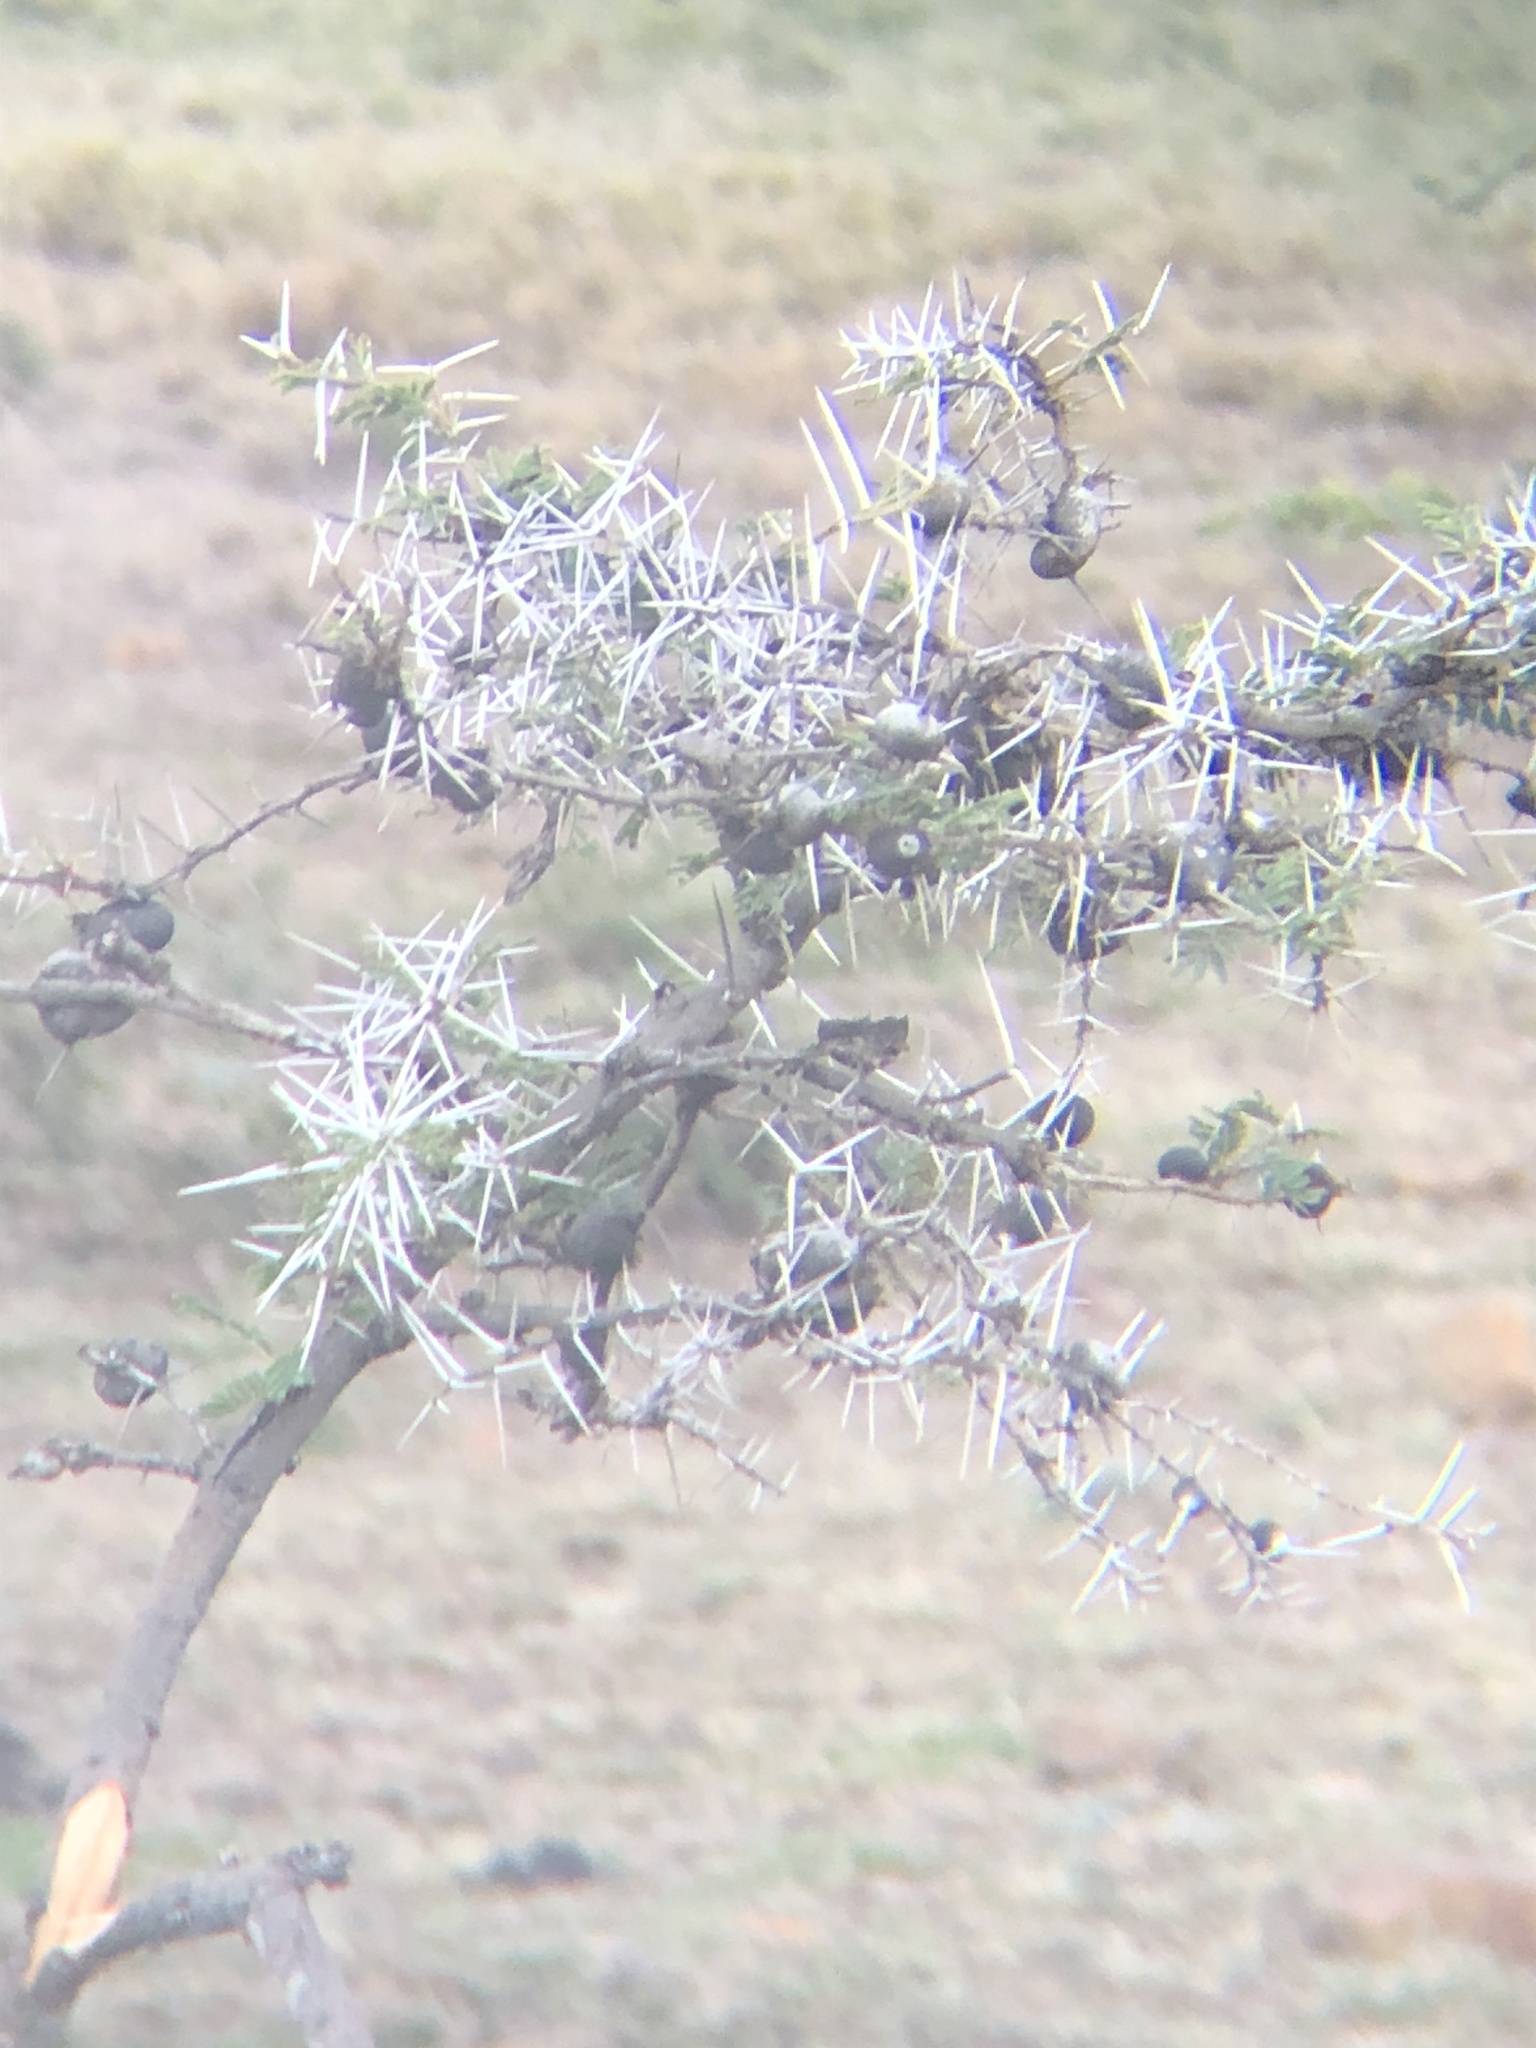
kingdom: Plantae
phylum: Tracheophyta
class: Magnoliopsida
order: Fabales
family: Fabaceae
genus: Vachellia
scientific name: Vachellia drepanolobium
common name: Whistling thorn
